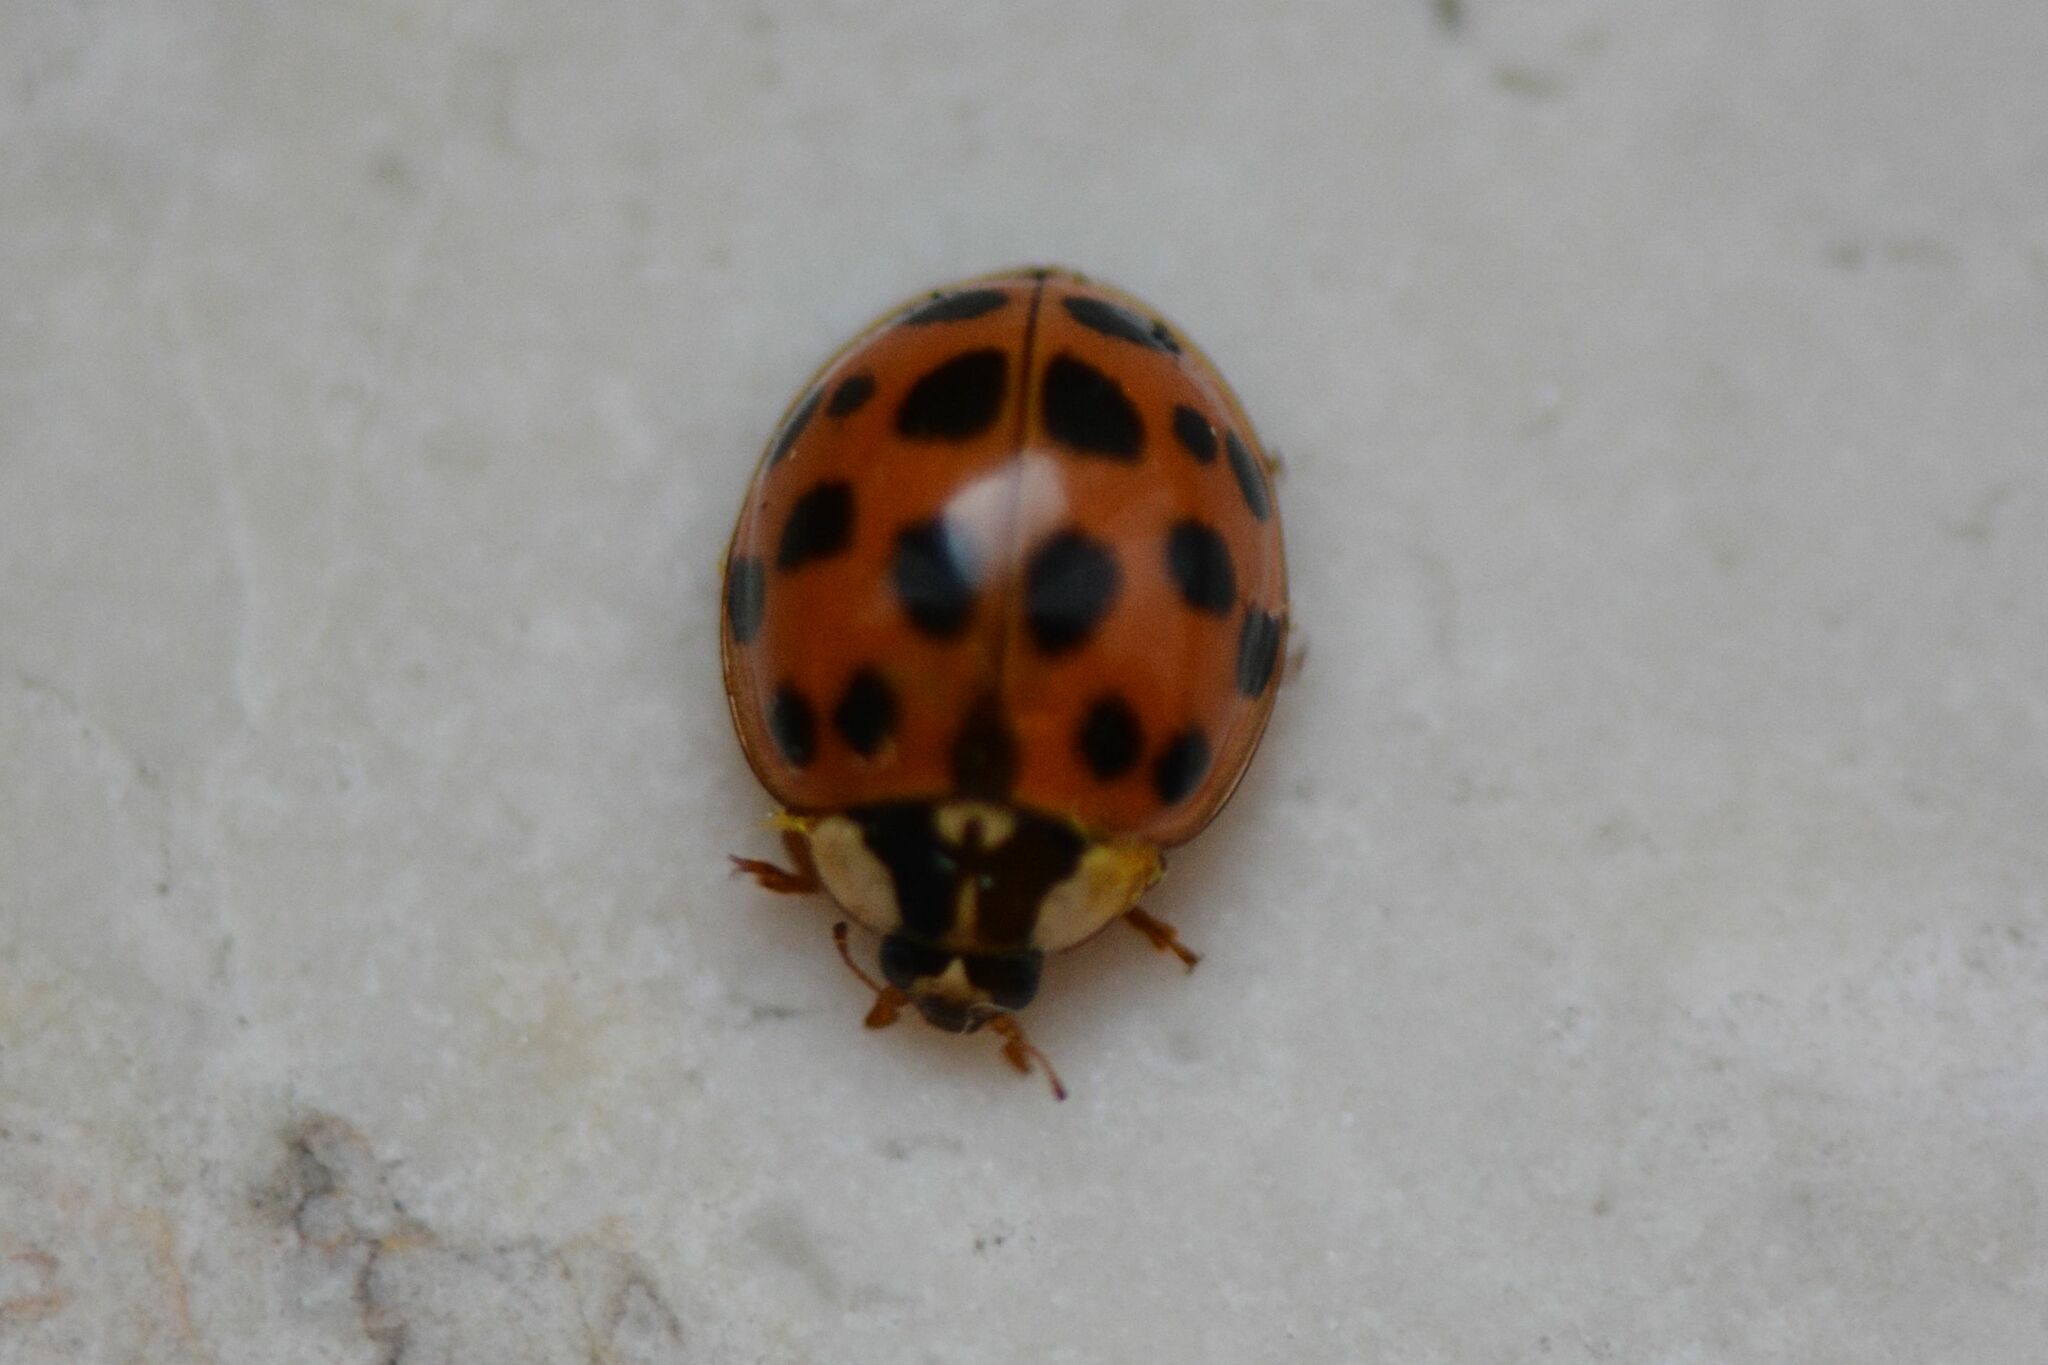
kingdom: Animalia
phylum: Arthropoda
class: Insecta
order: Coleoptera
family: Coccinellidae
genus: Harmonia
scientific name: Harmonia axyridis
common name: Harlequin ladybird
